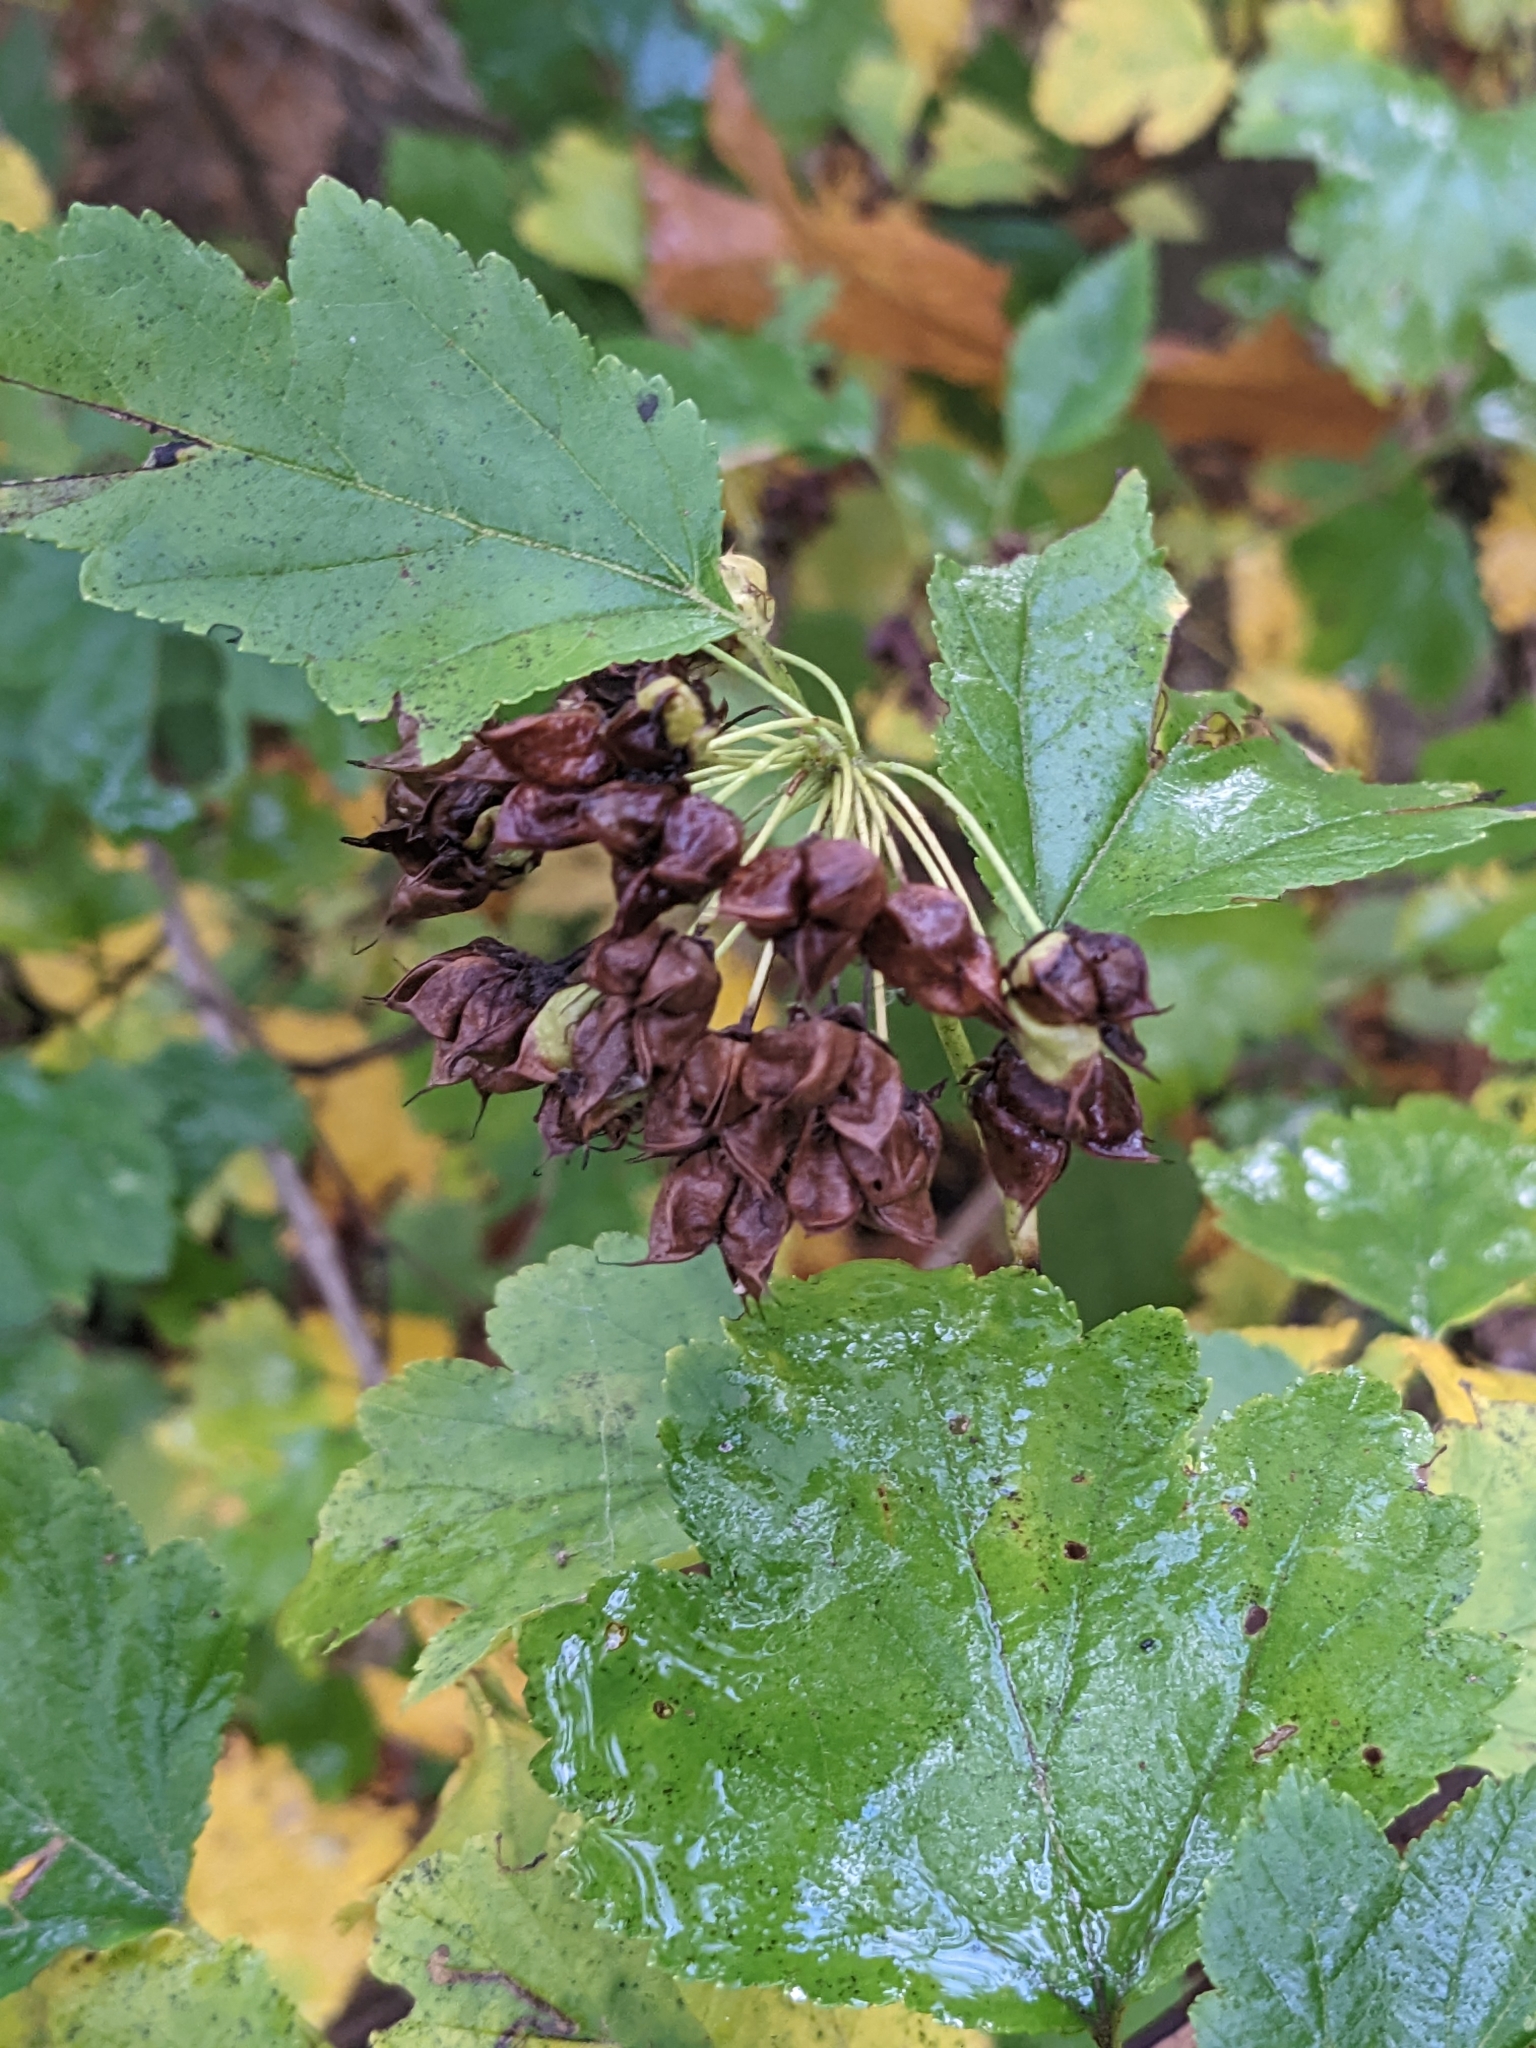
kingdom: Plantae
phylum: Tracheophyta
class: Magnoliopsida
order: Rosales
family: Rosaceae
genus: Physocarpus
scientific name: Physocarpus opulifolius
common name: Ninebark
